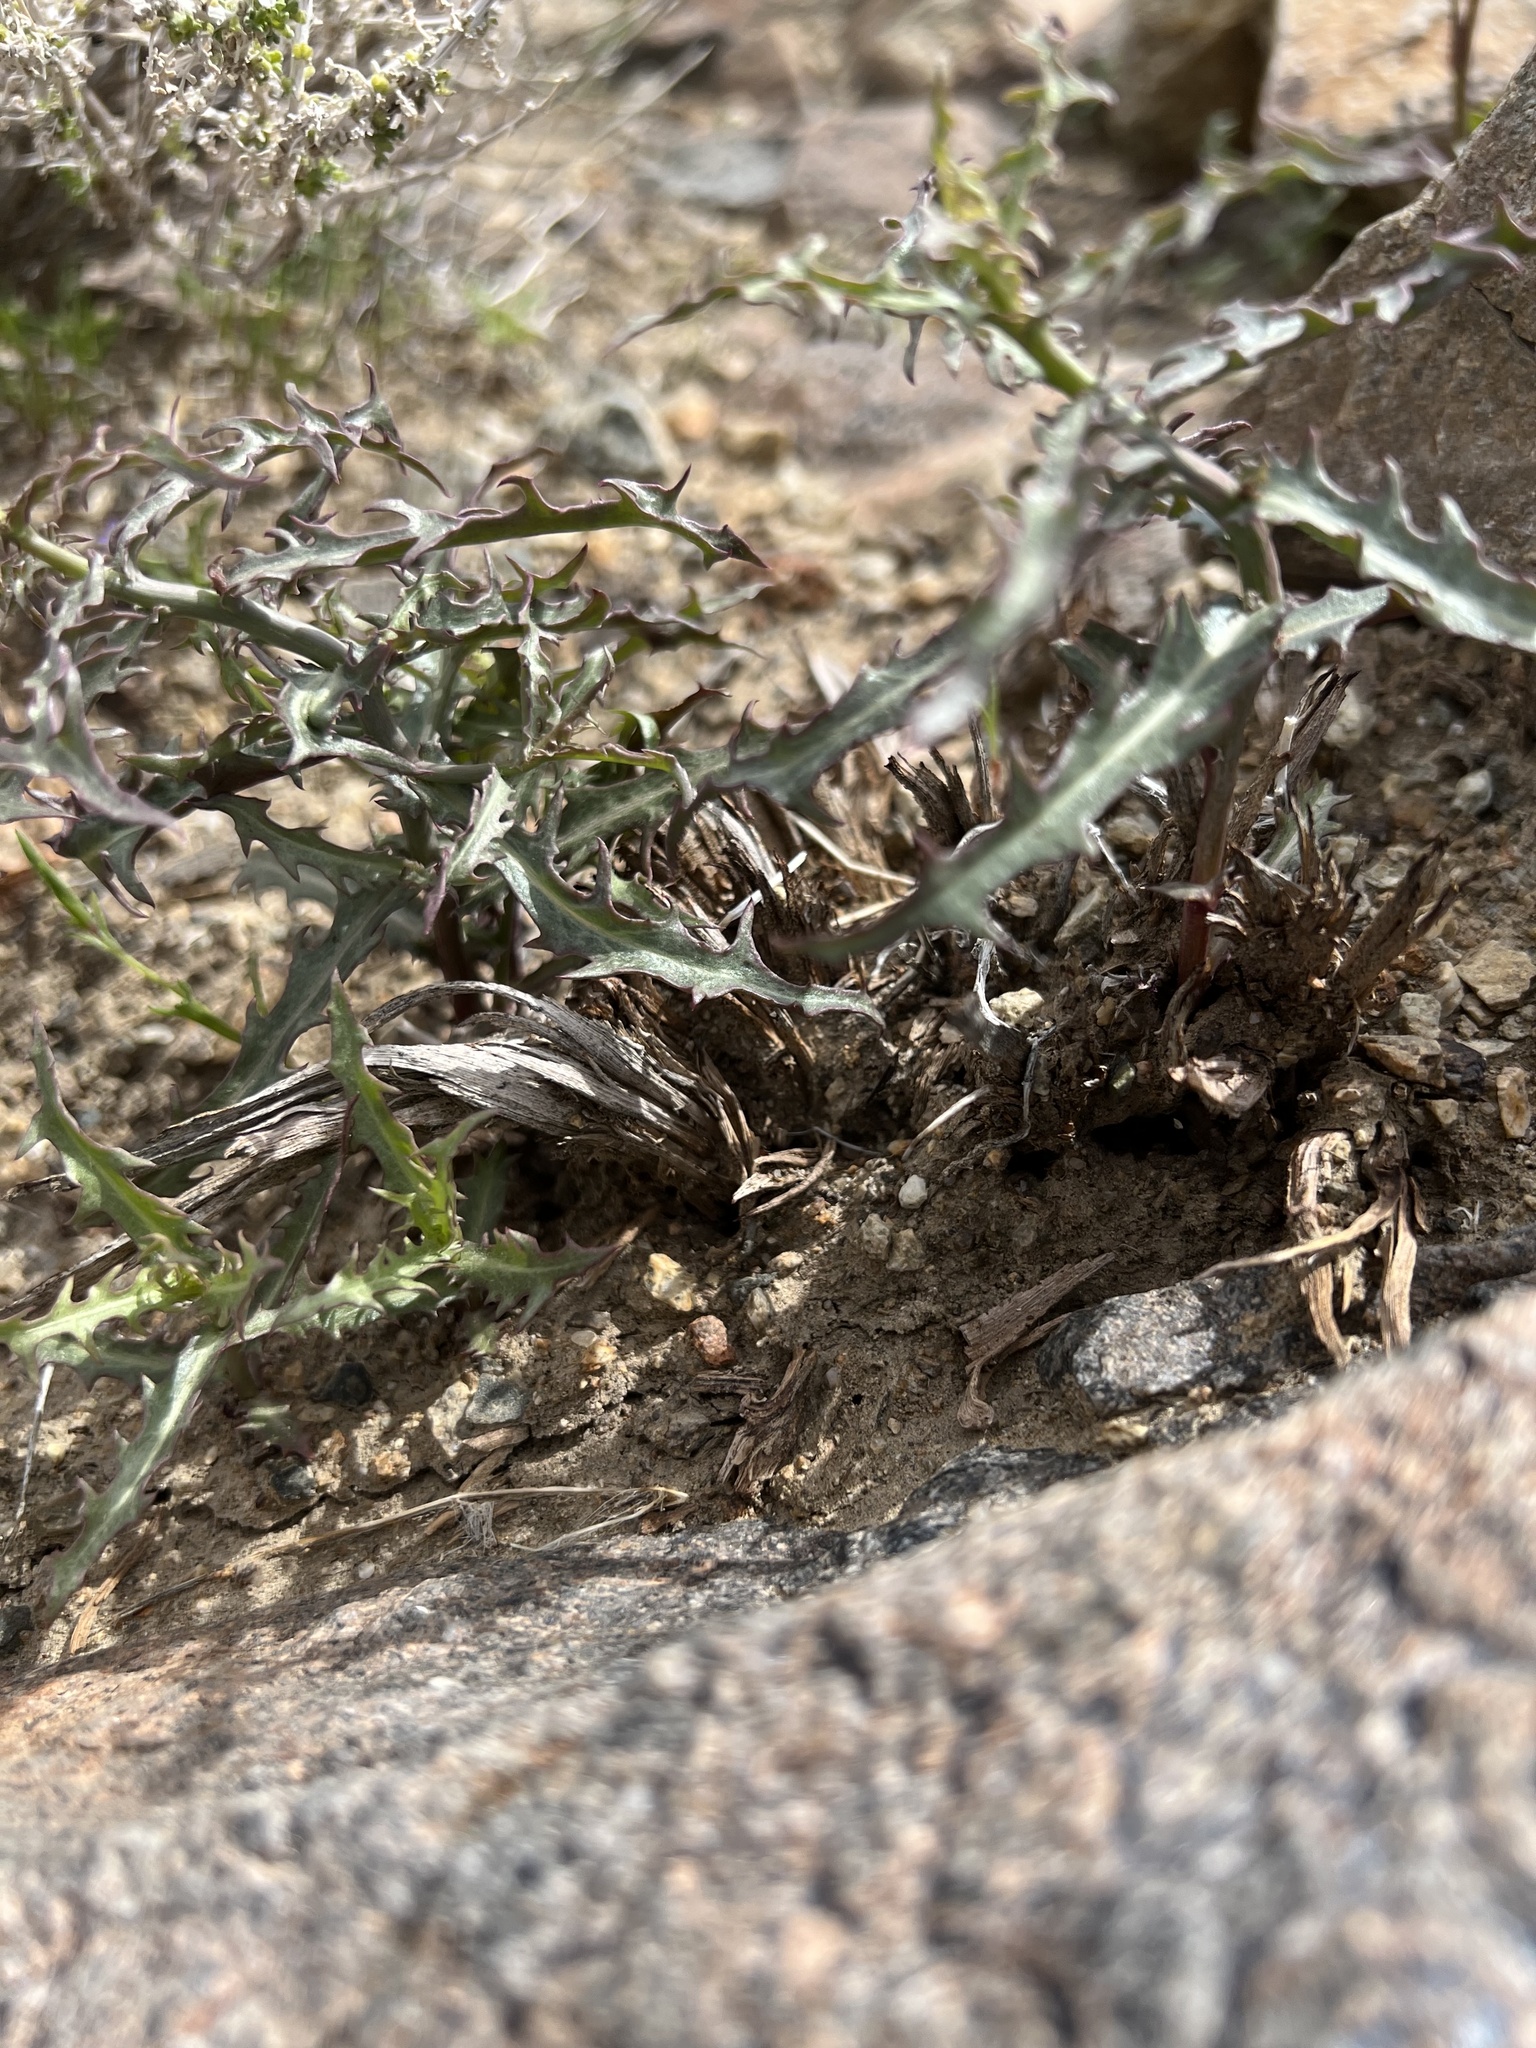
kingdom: Plantae
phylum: Tracheophyta
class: Magnoliopsida
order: Asterales
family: Asteraceae
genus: Stephanomeria
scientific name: Stephanomeria parryi
